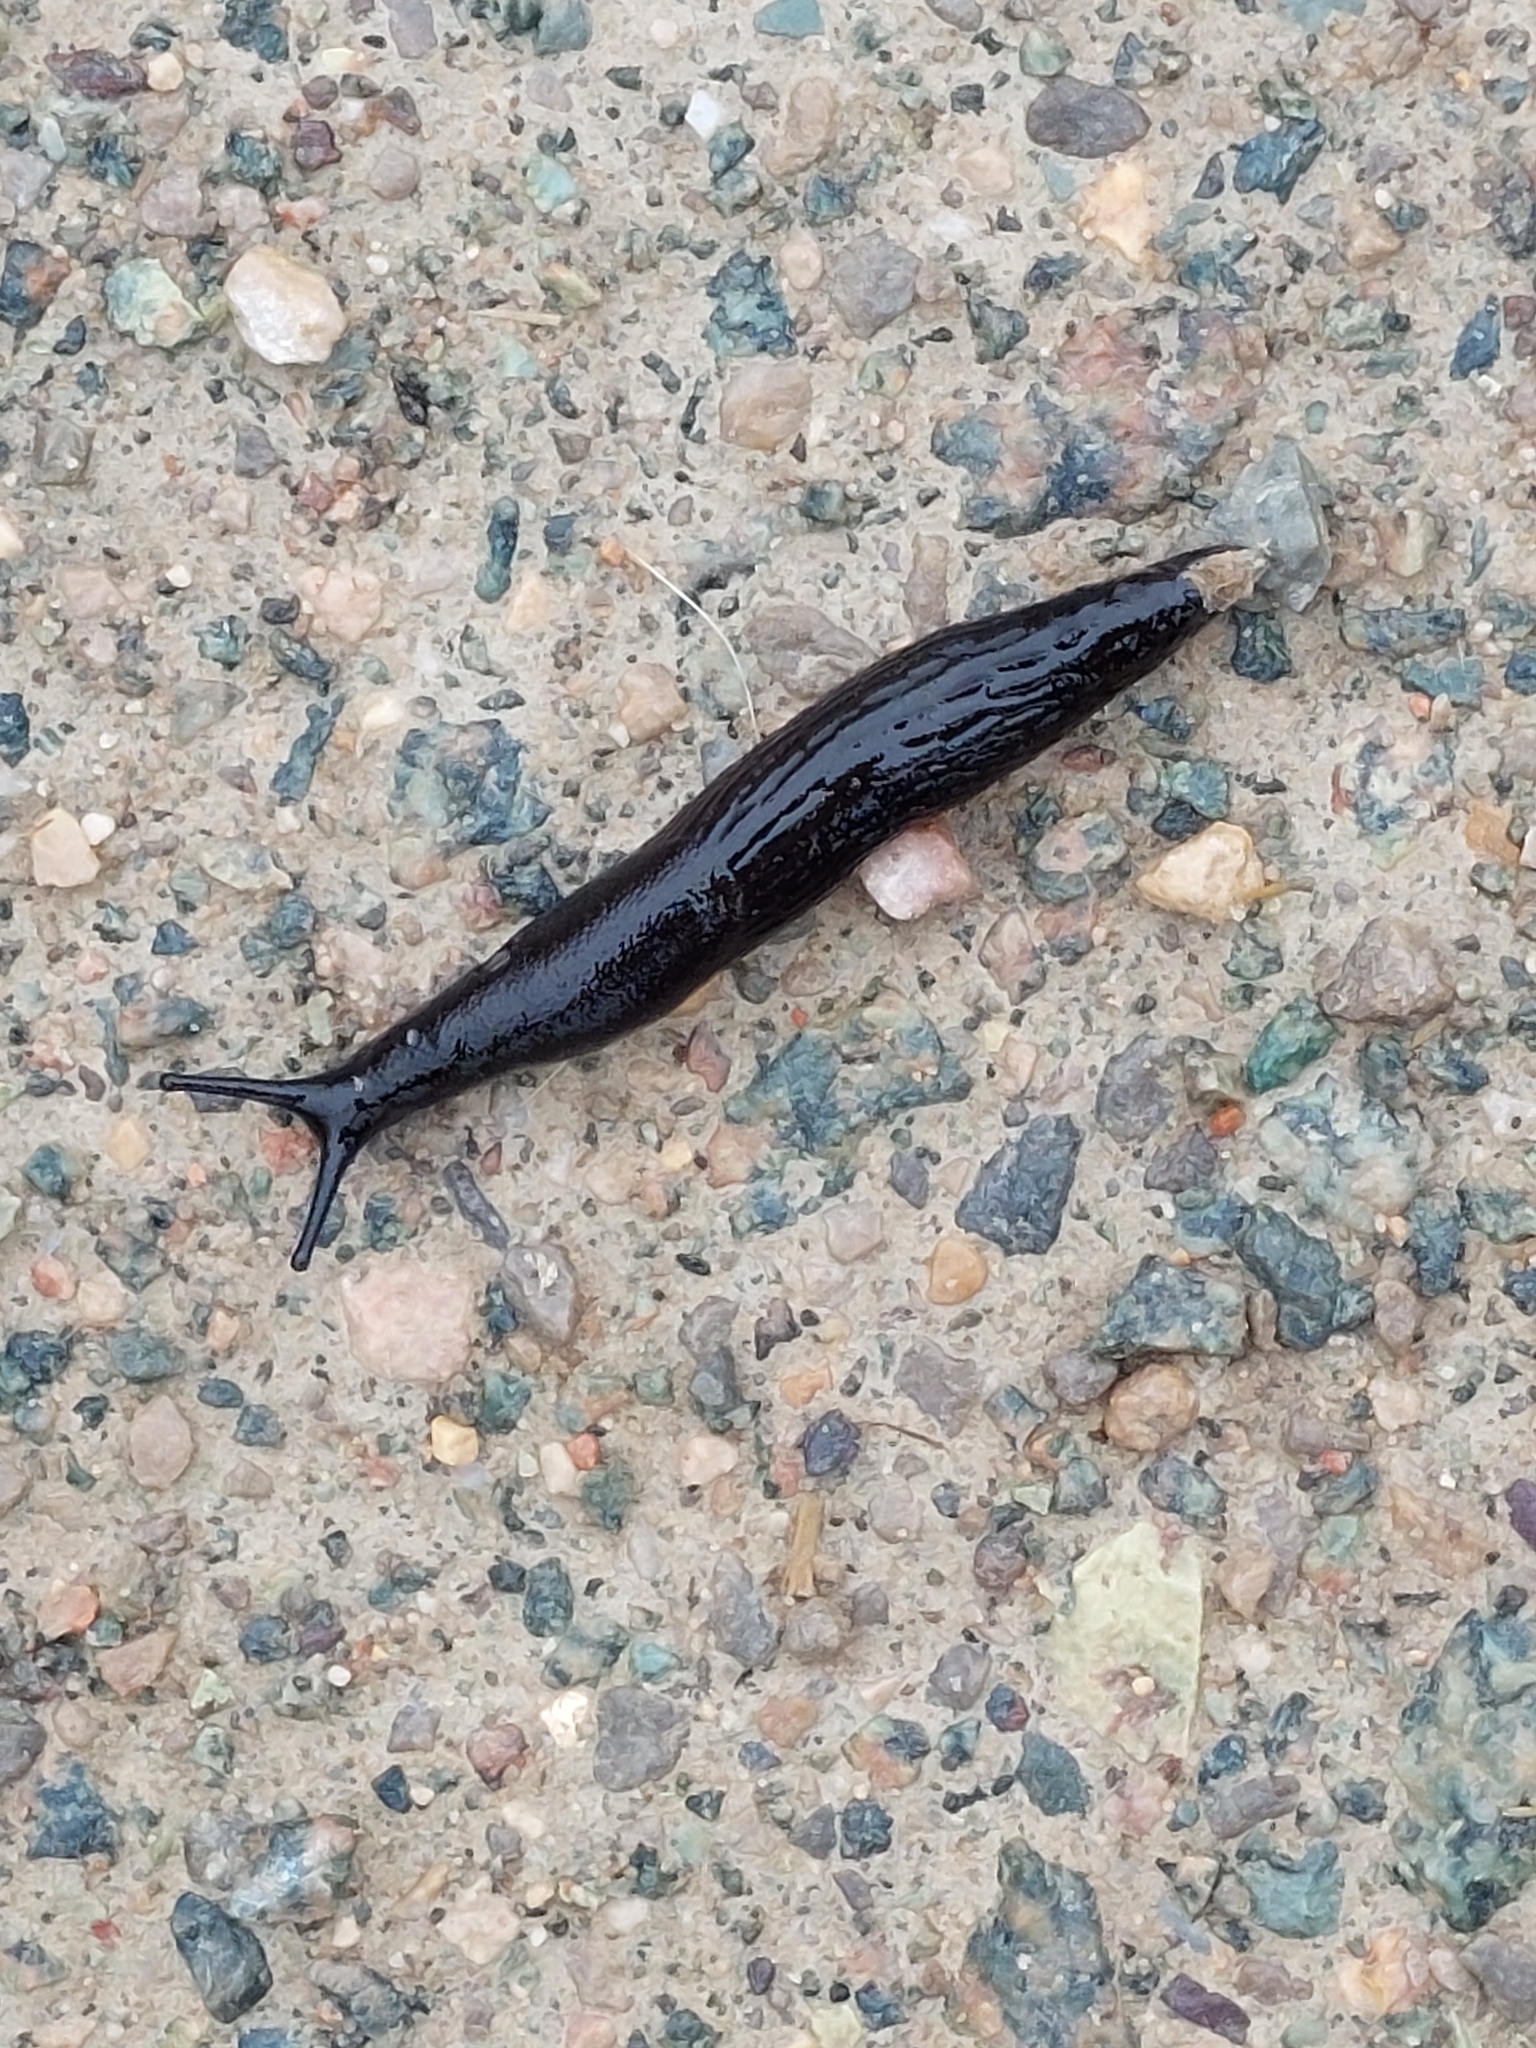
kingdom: Animalia
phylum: Mollusca
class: Gastropoda
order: Stylommatophora
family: Arionidae
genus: Arion
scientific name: Arion ater
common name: Black arion
